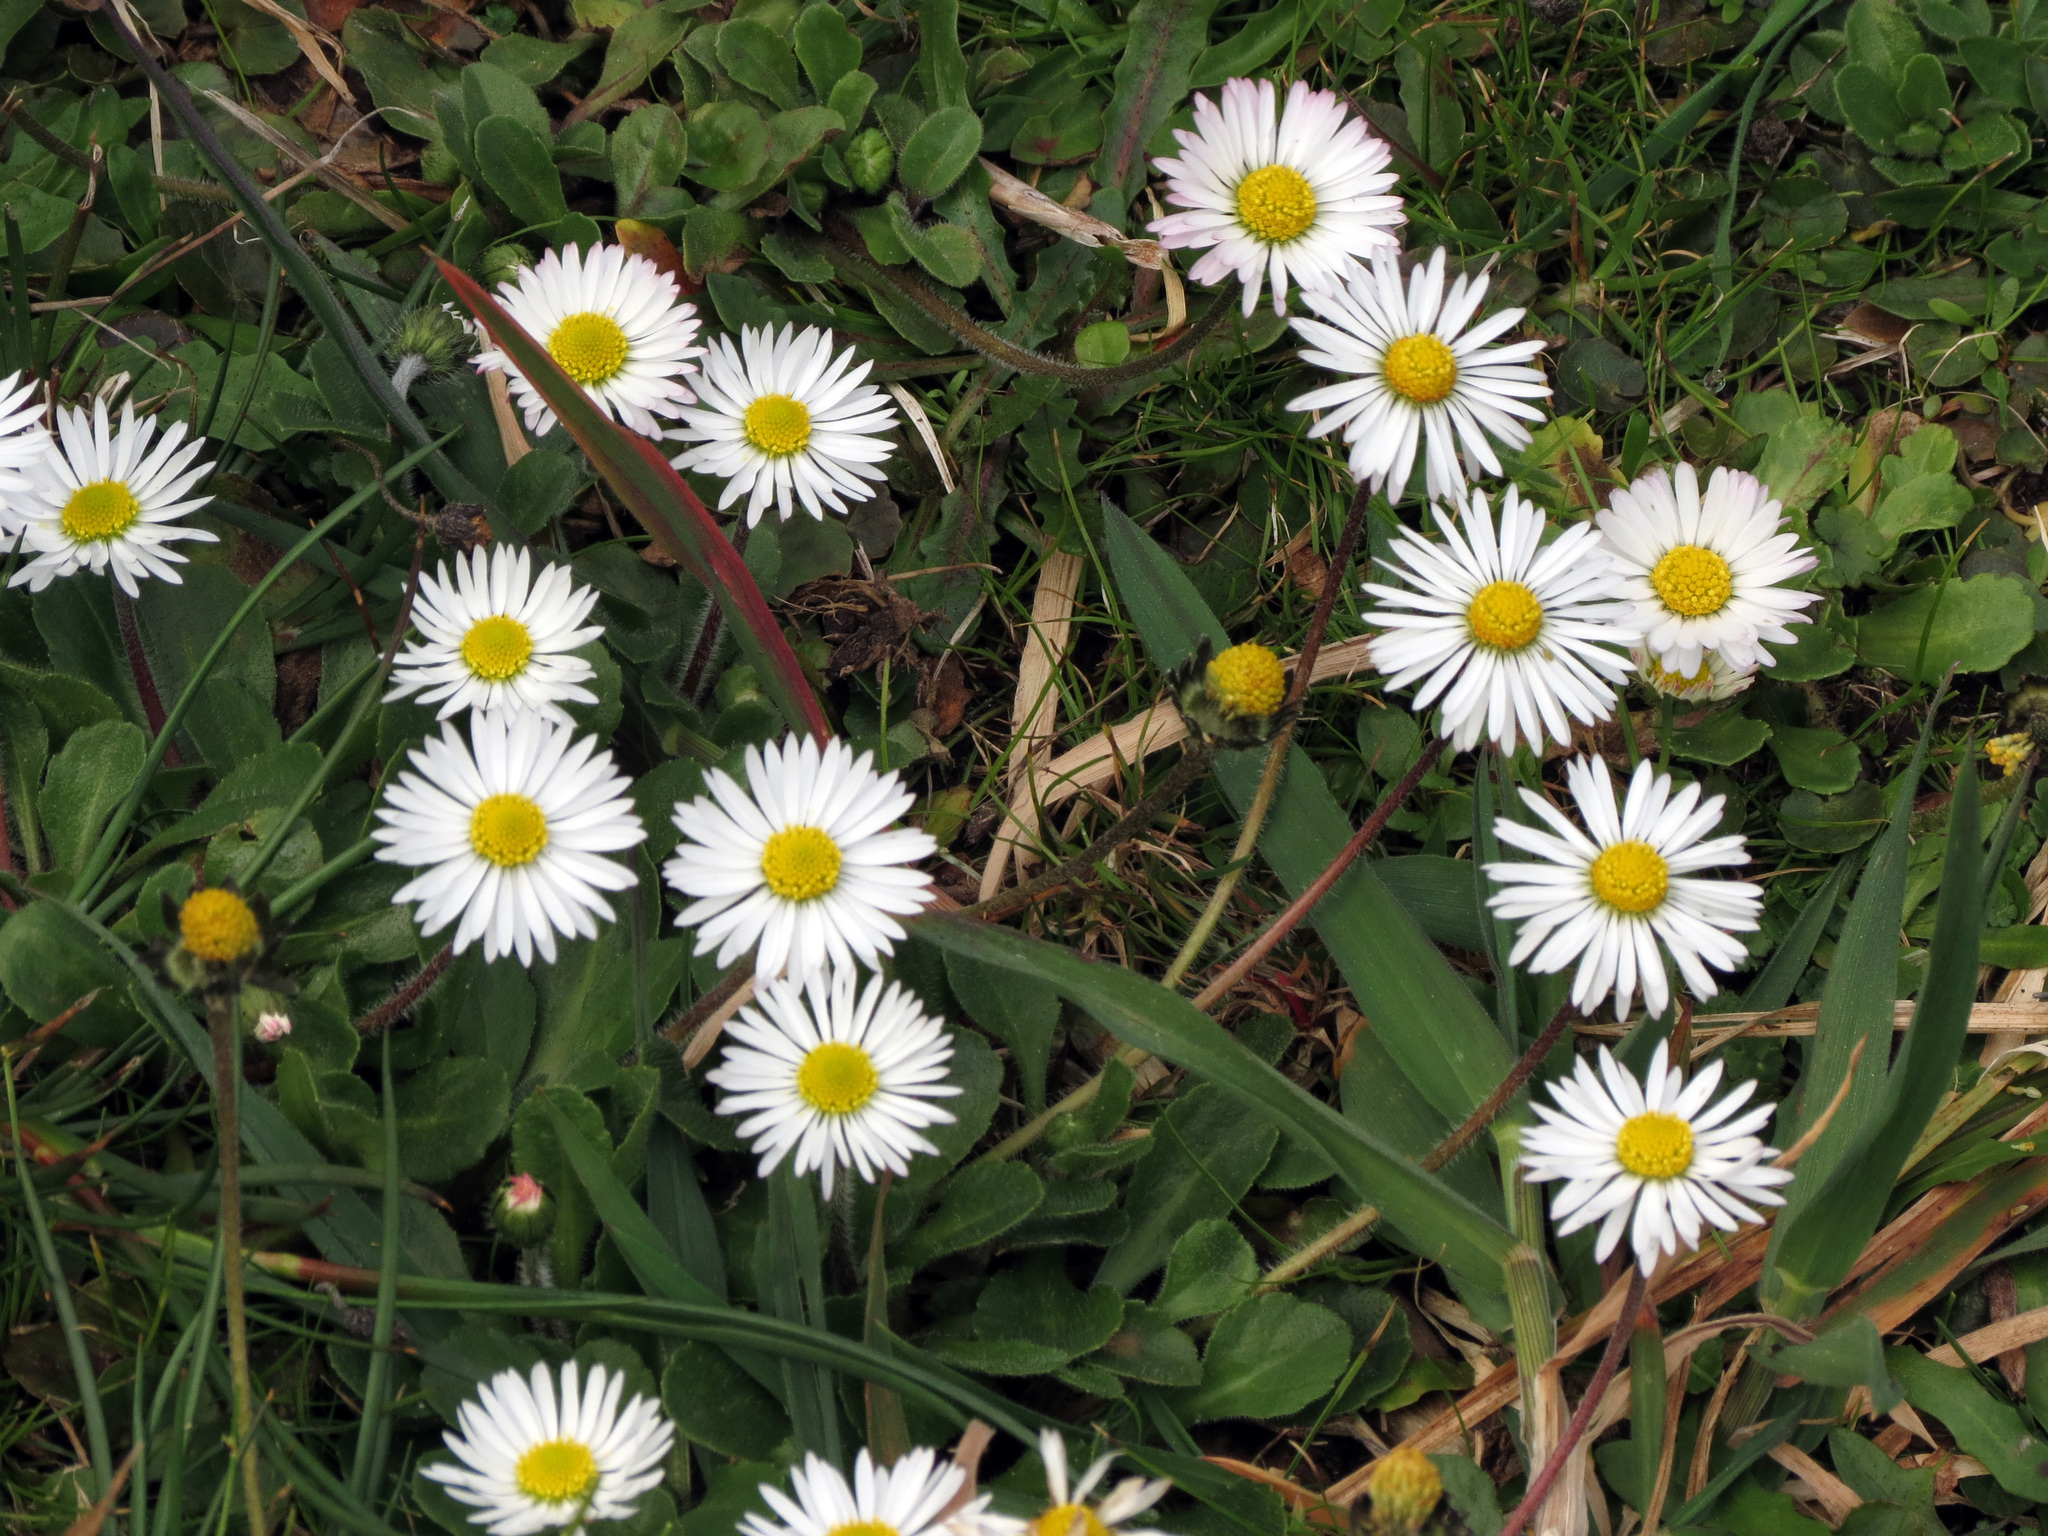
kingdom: Plantae
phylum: Tracheophyta
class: Magnoliopsida
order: Asterales
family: Asteraceae
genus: Bellis
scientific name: Bellis perennis
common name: Lawndaisy
